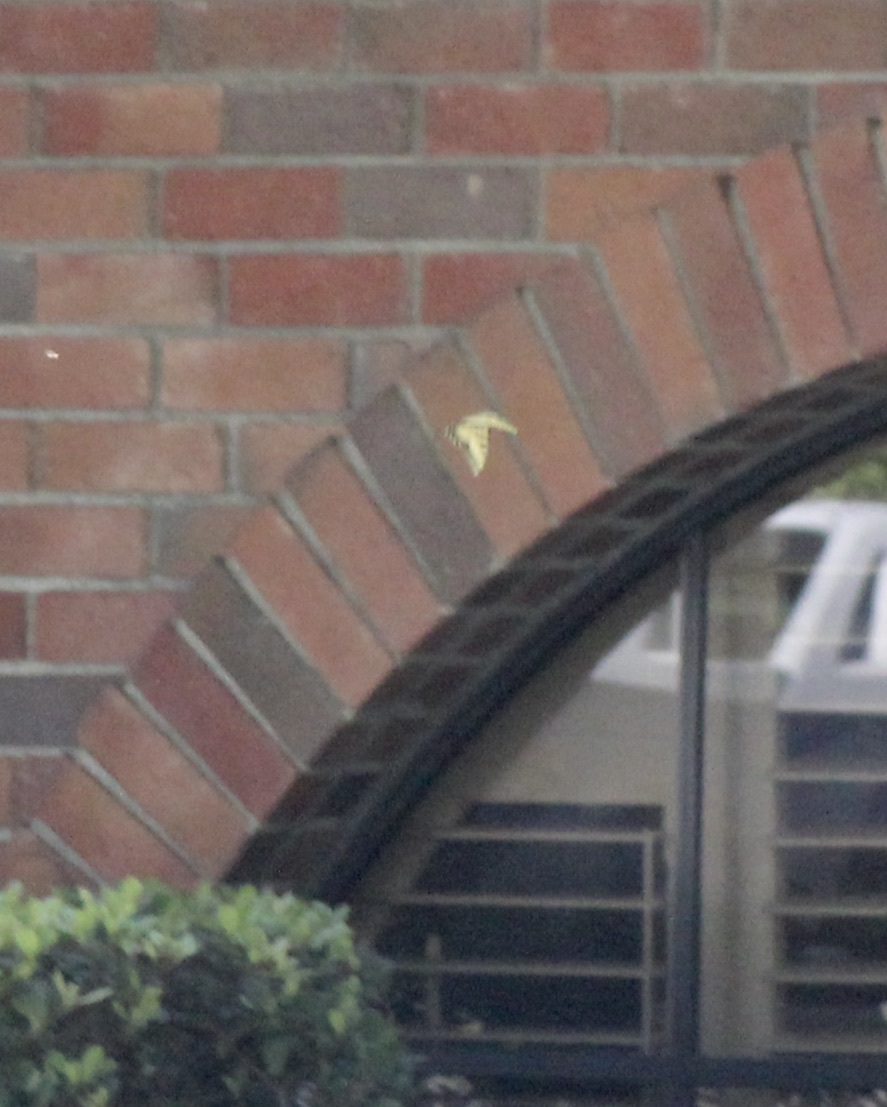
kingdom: Animalia
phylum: Arthropoda
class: Insecta
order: Lepidoptera
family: Papilionidae
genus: Papilio
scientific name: Papilio rutulus
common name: Western tiger swallowtail
